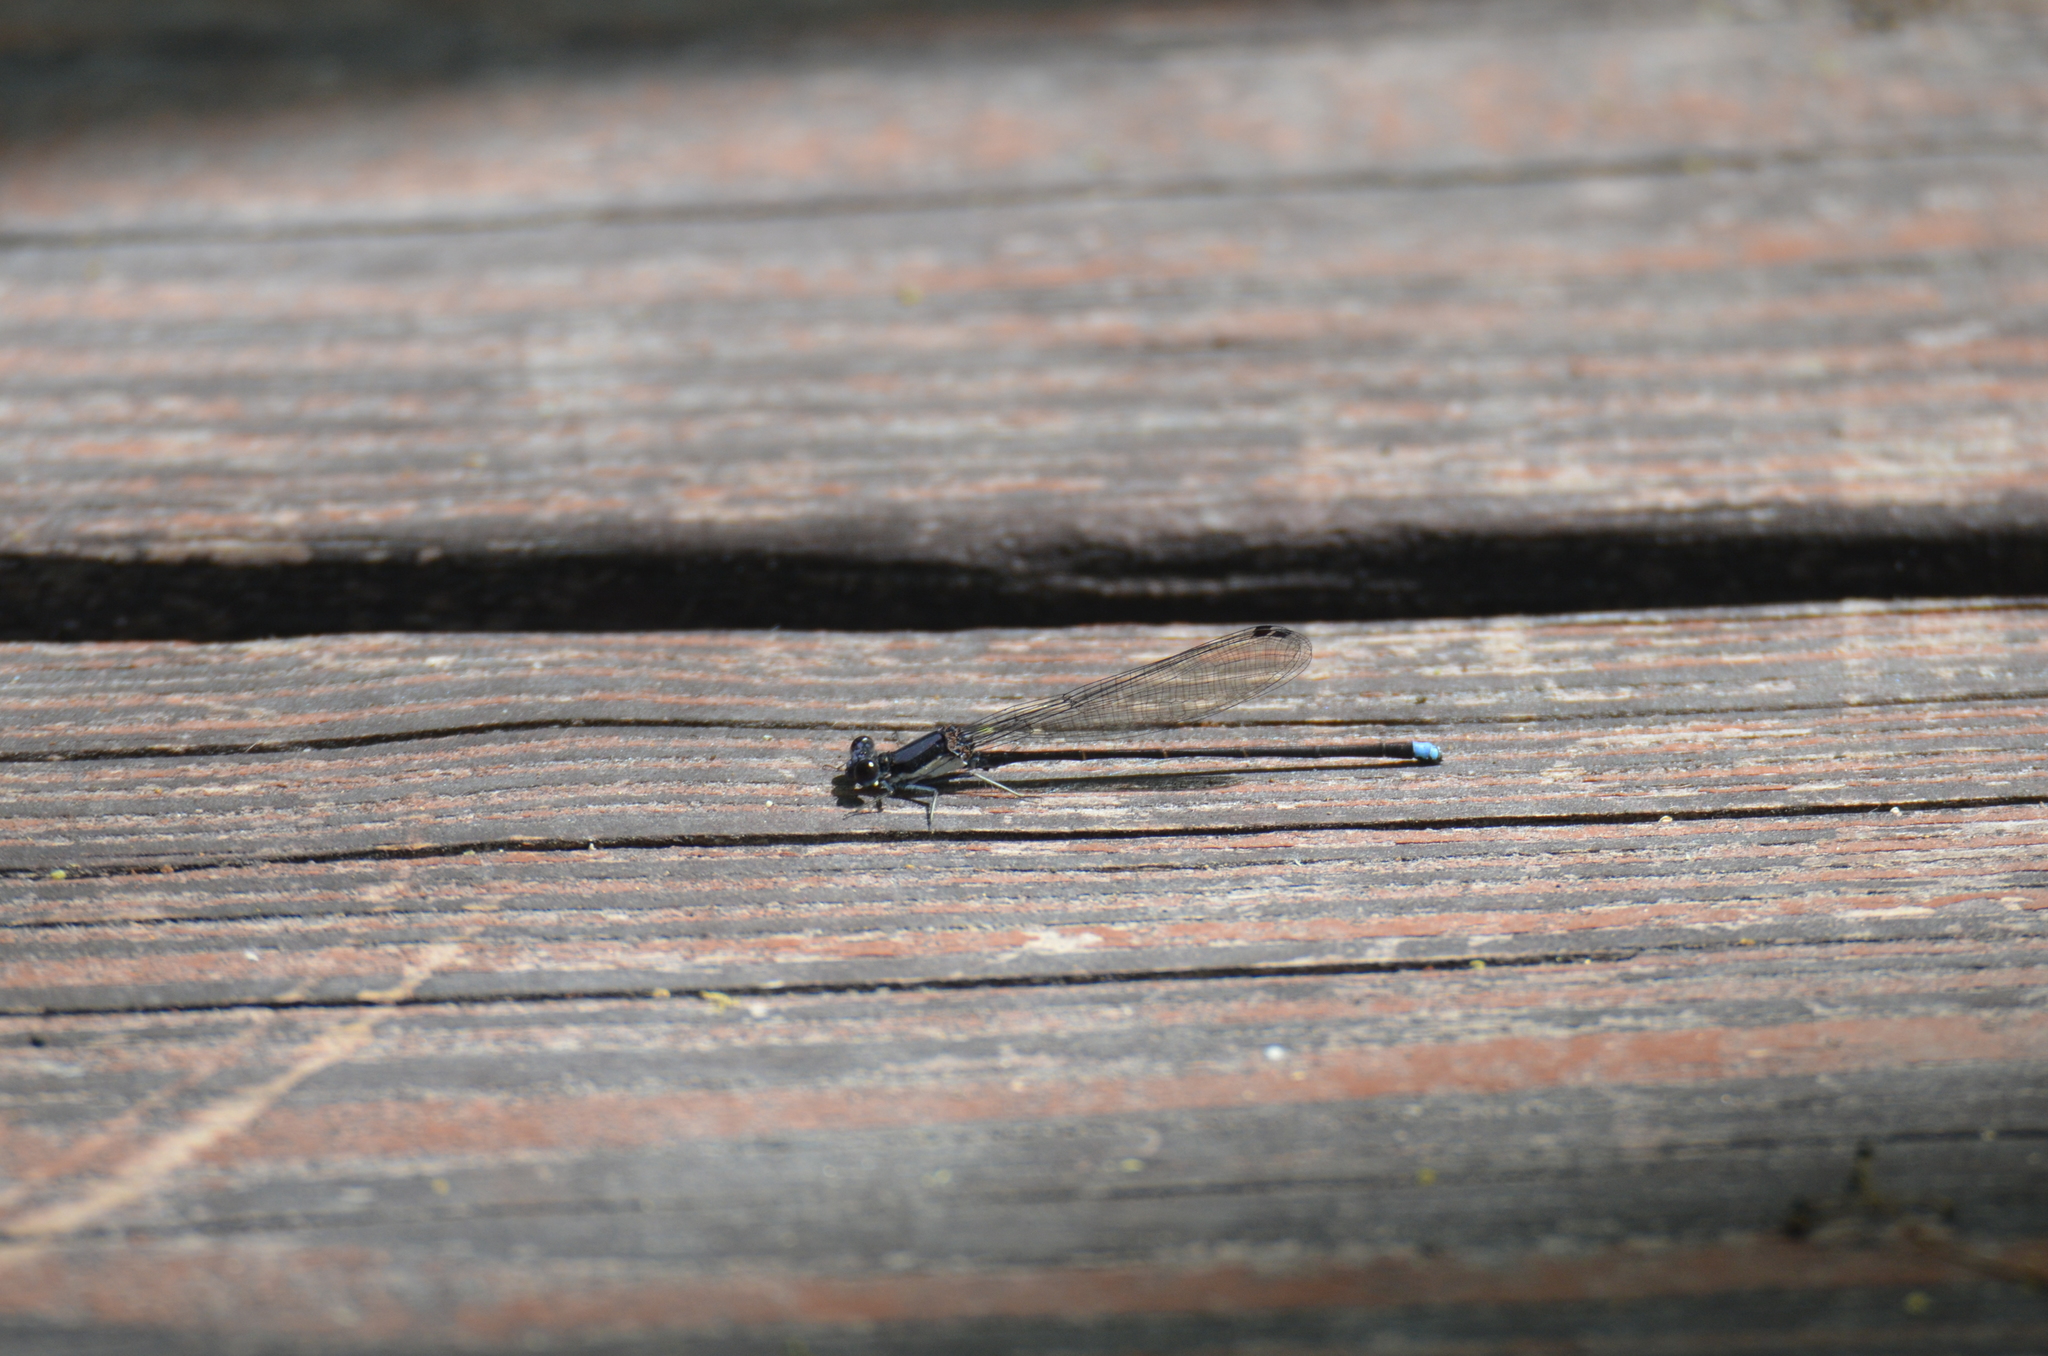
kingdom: Animalia
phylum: Arthropoda
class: Insecta
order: Odonata
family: Coenagrionidae
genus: Argia
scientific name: Argia tibialis
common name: Blue-tipped dancer
